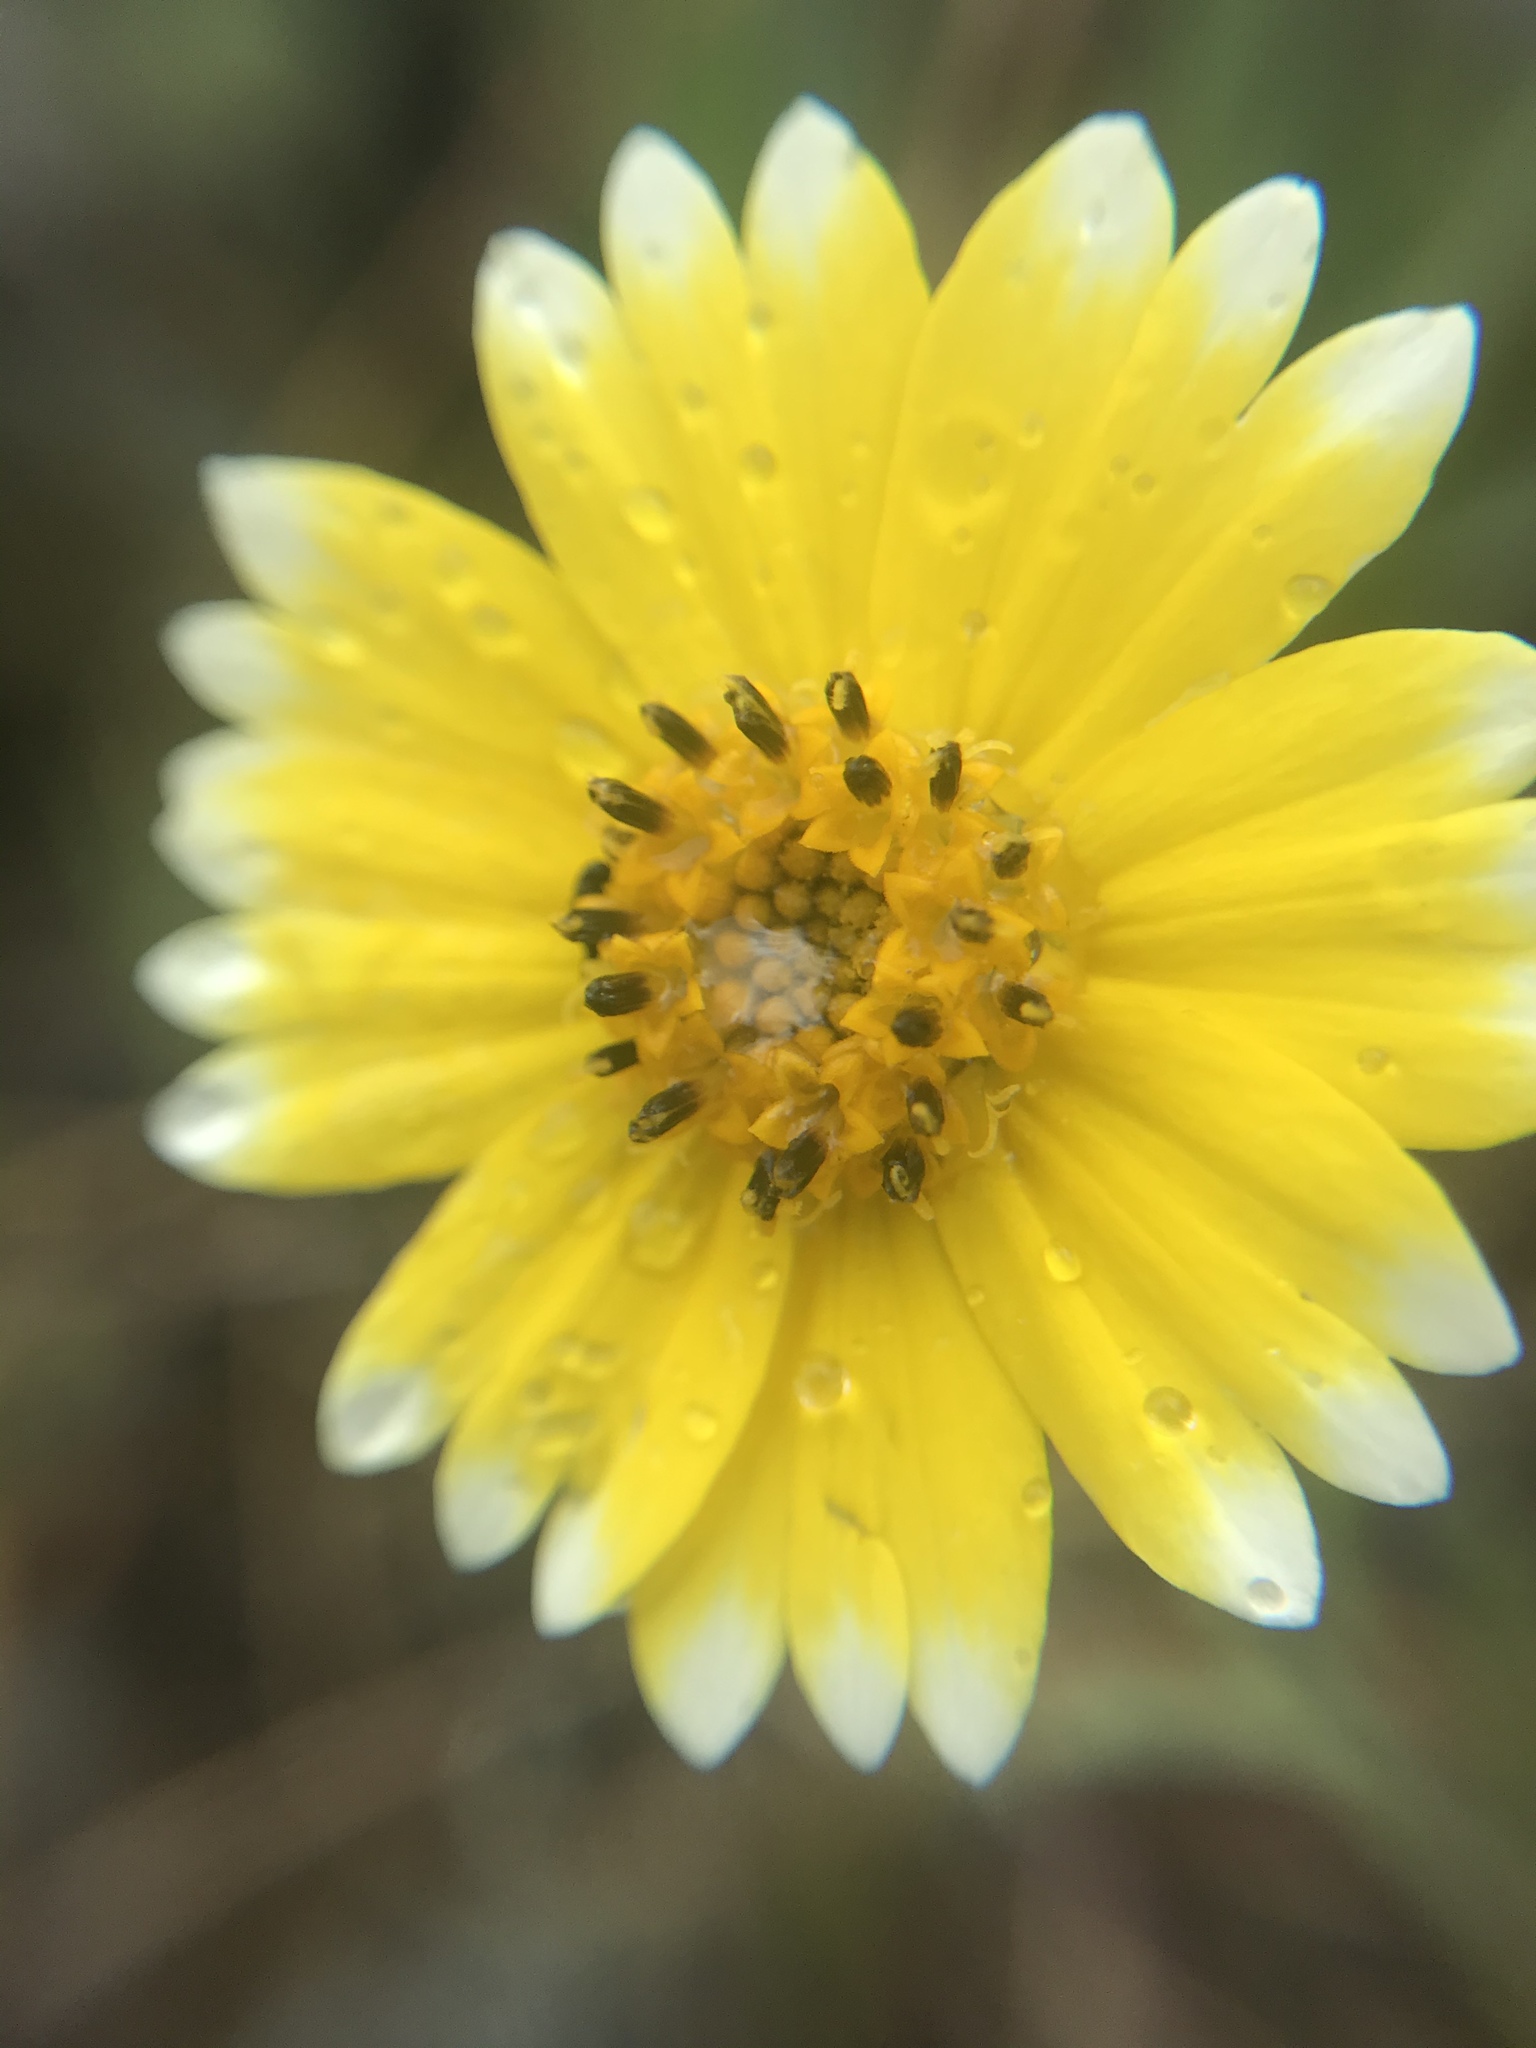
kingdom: Plantae
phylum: Tracheophyta
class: Magnoliopsida
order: Asterales
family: Asteraceae
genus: Layia
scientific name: Layia platyglossa
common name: Tidy-tips
